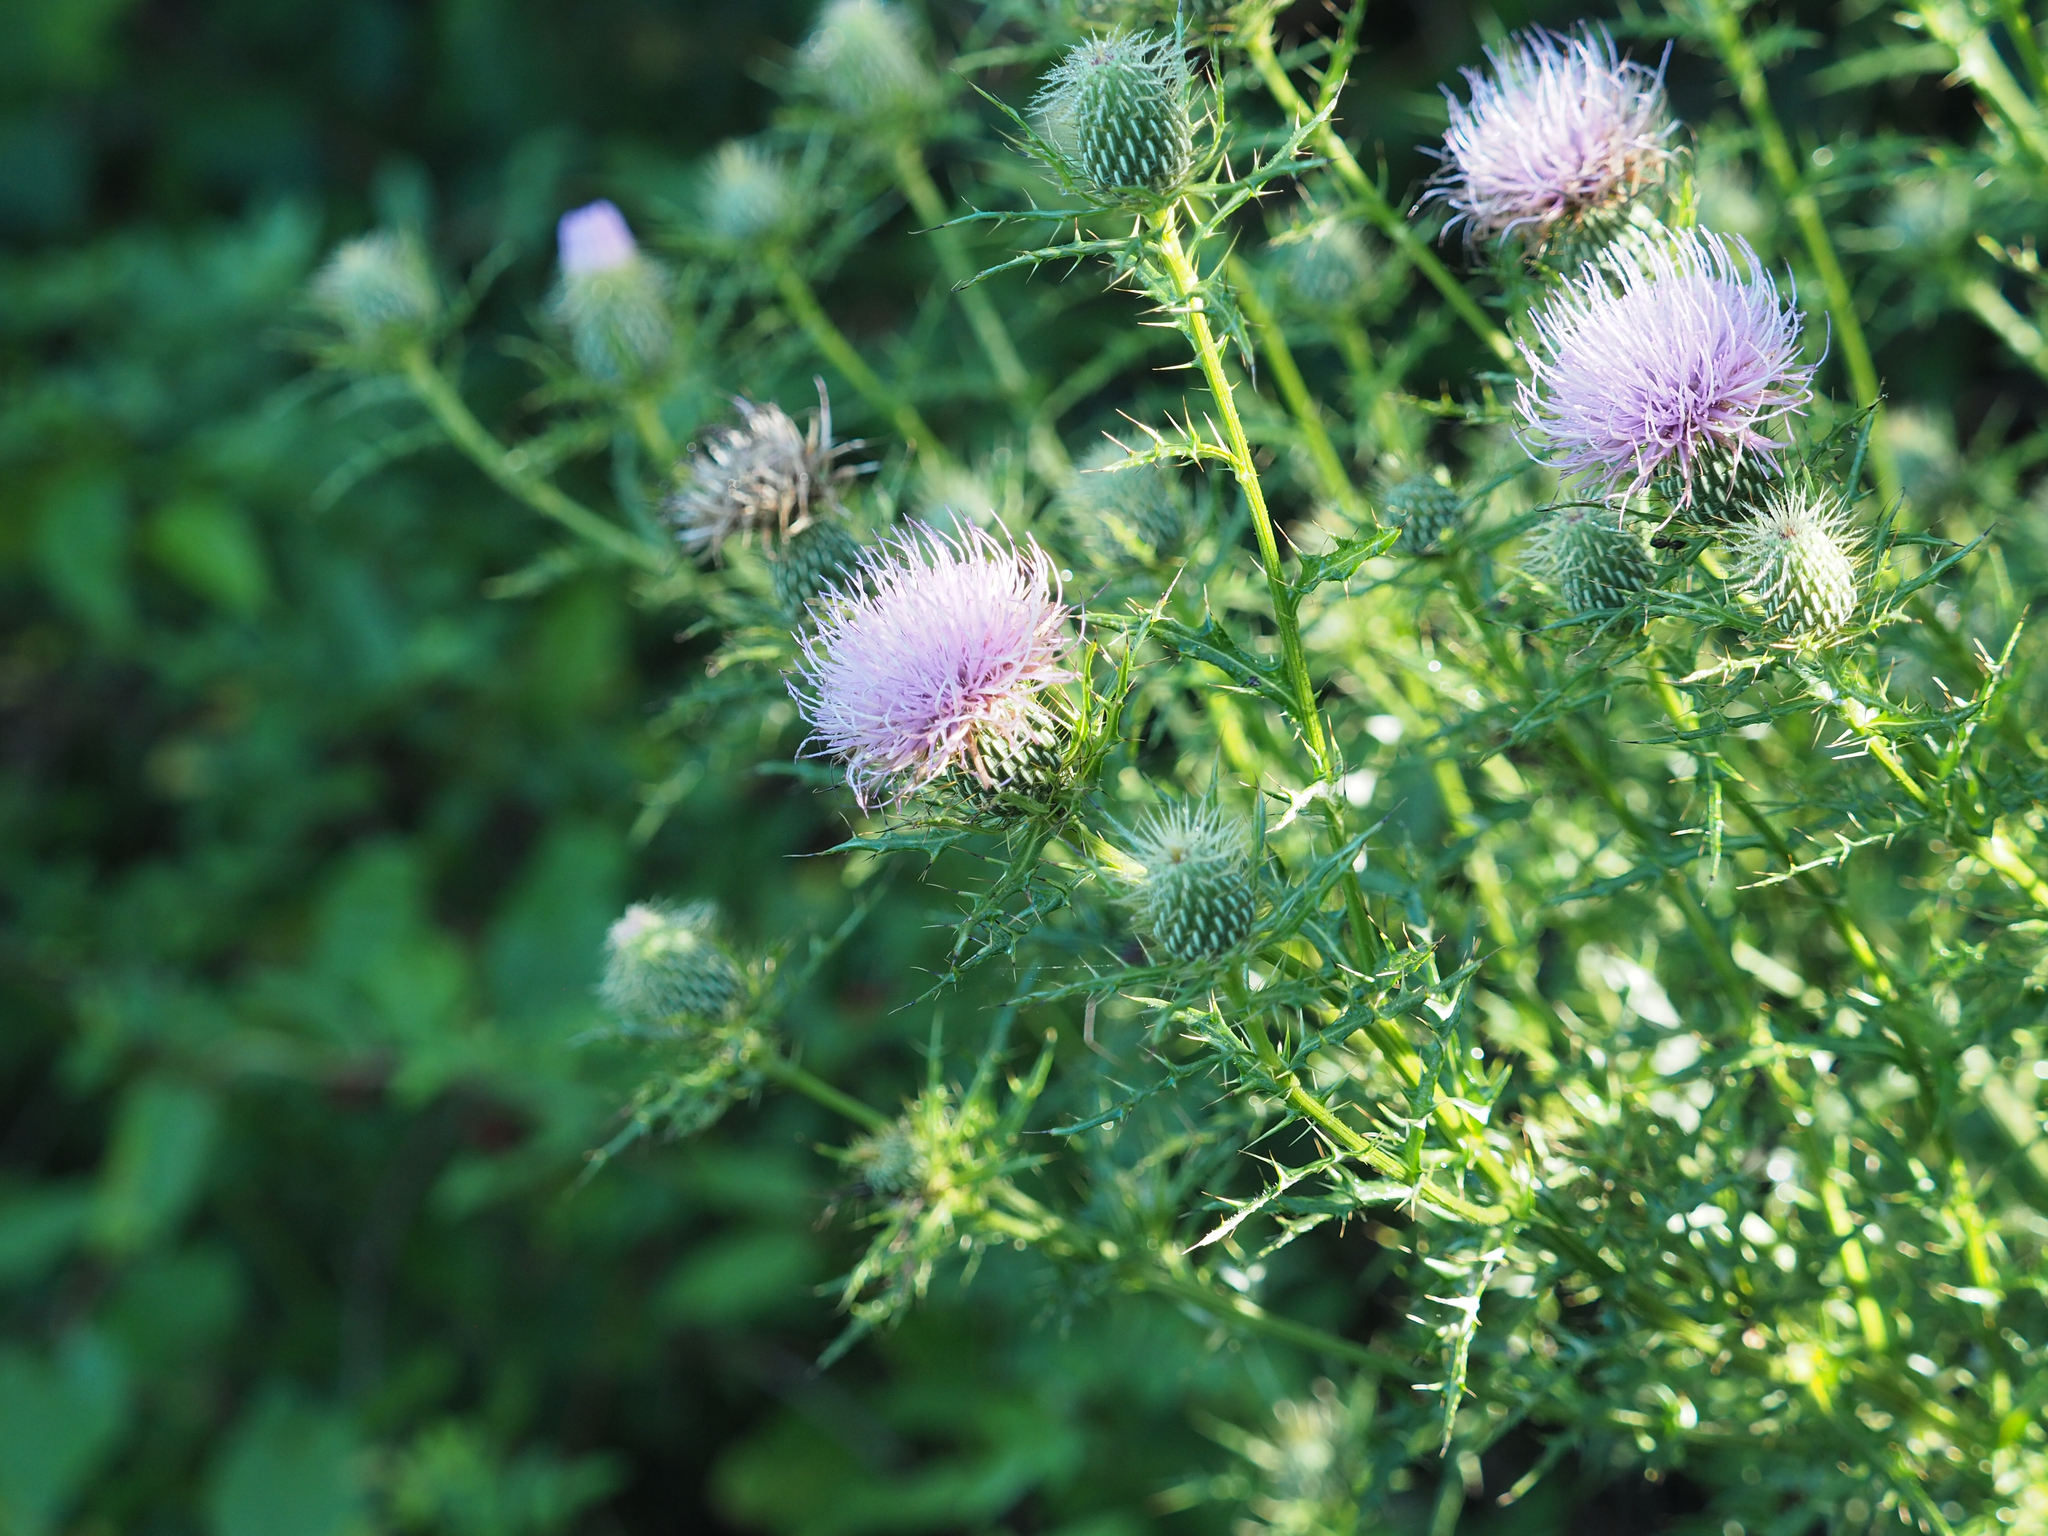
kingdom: Plantae
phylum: Tracheophyta
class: Magnoliopsida
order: Asterales
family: Asteraceae
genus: Cirsium
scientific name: Cirsium discolor
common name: Field thistle
